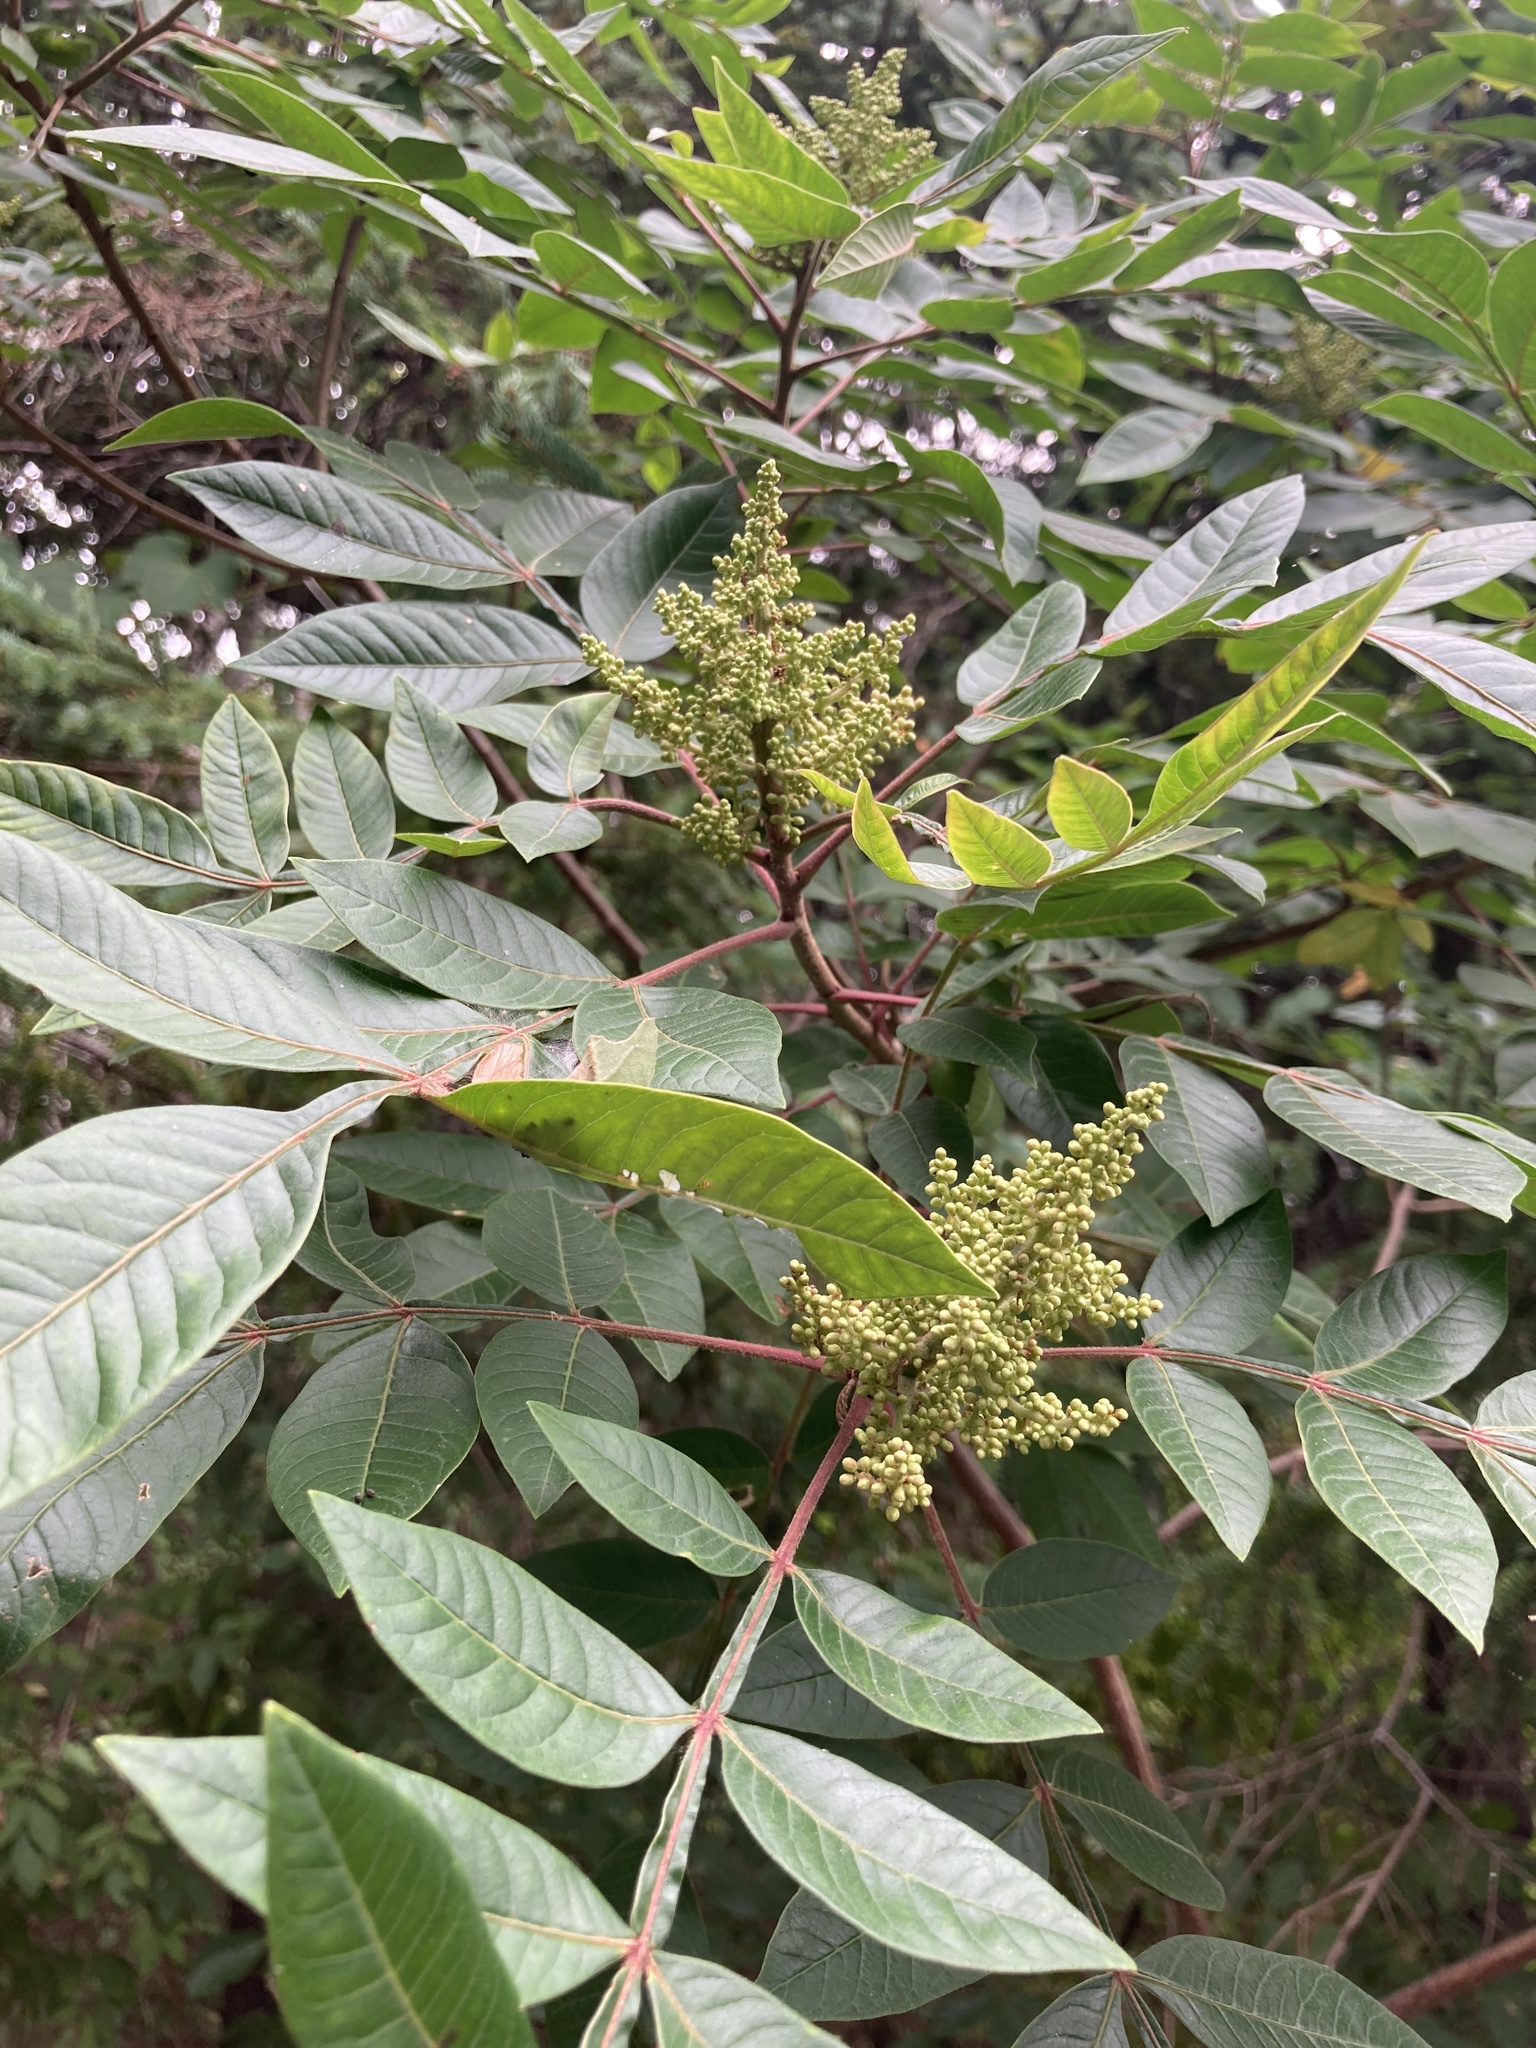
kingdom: Plantae
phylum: Tracheophyta
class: Magnoliopsida
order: Sapindales
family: Anacardiaceae
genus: Rhus
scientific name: Rhus copallina
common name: Shining sumac
